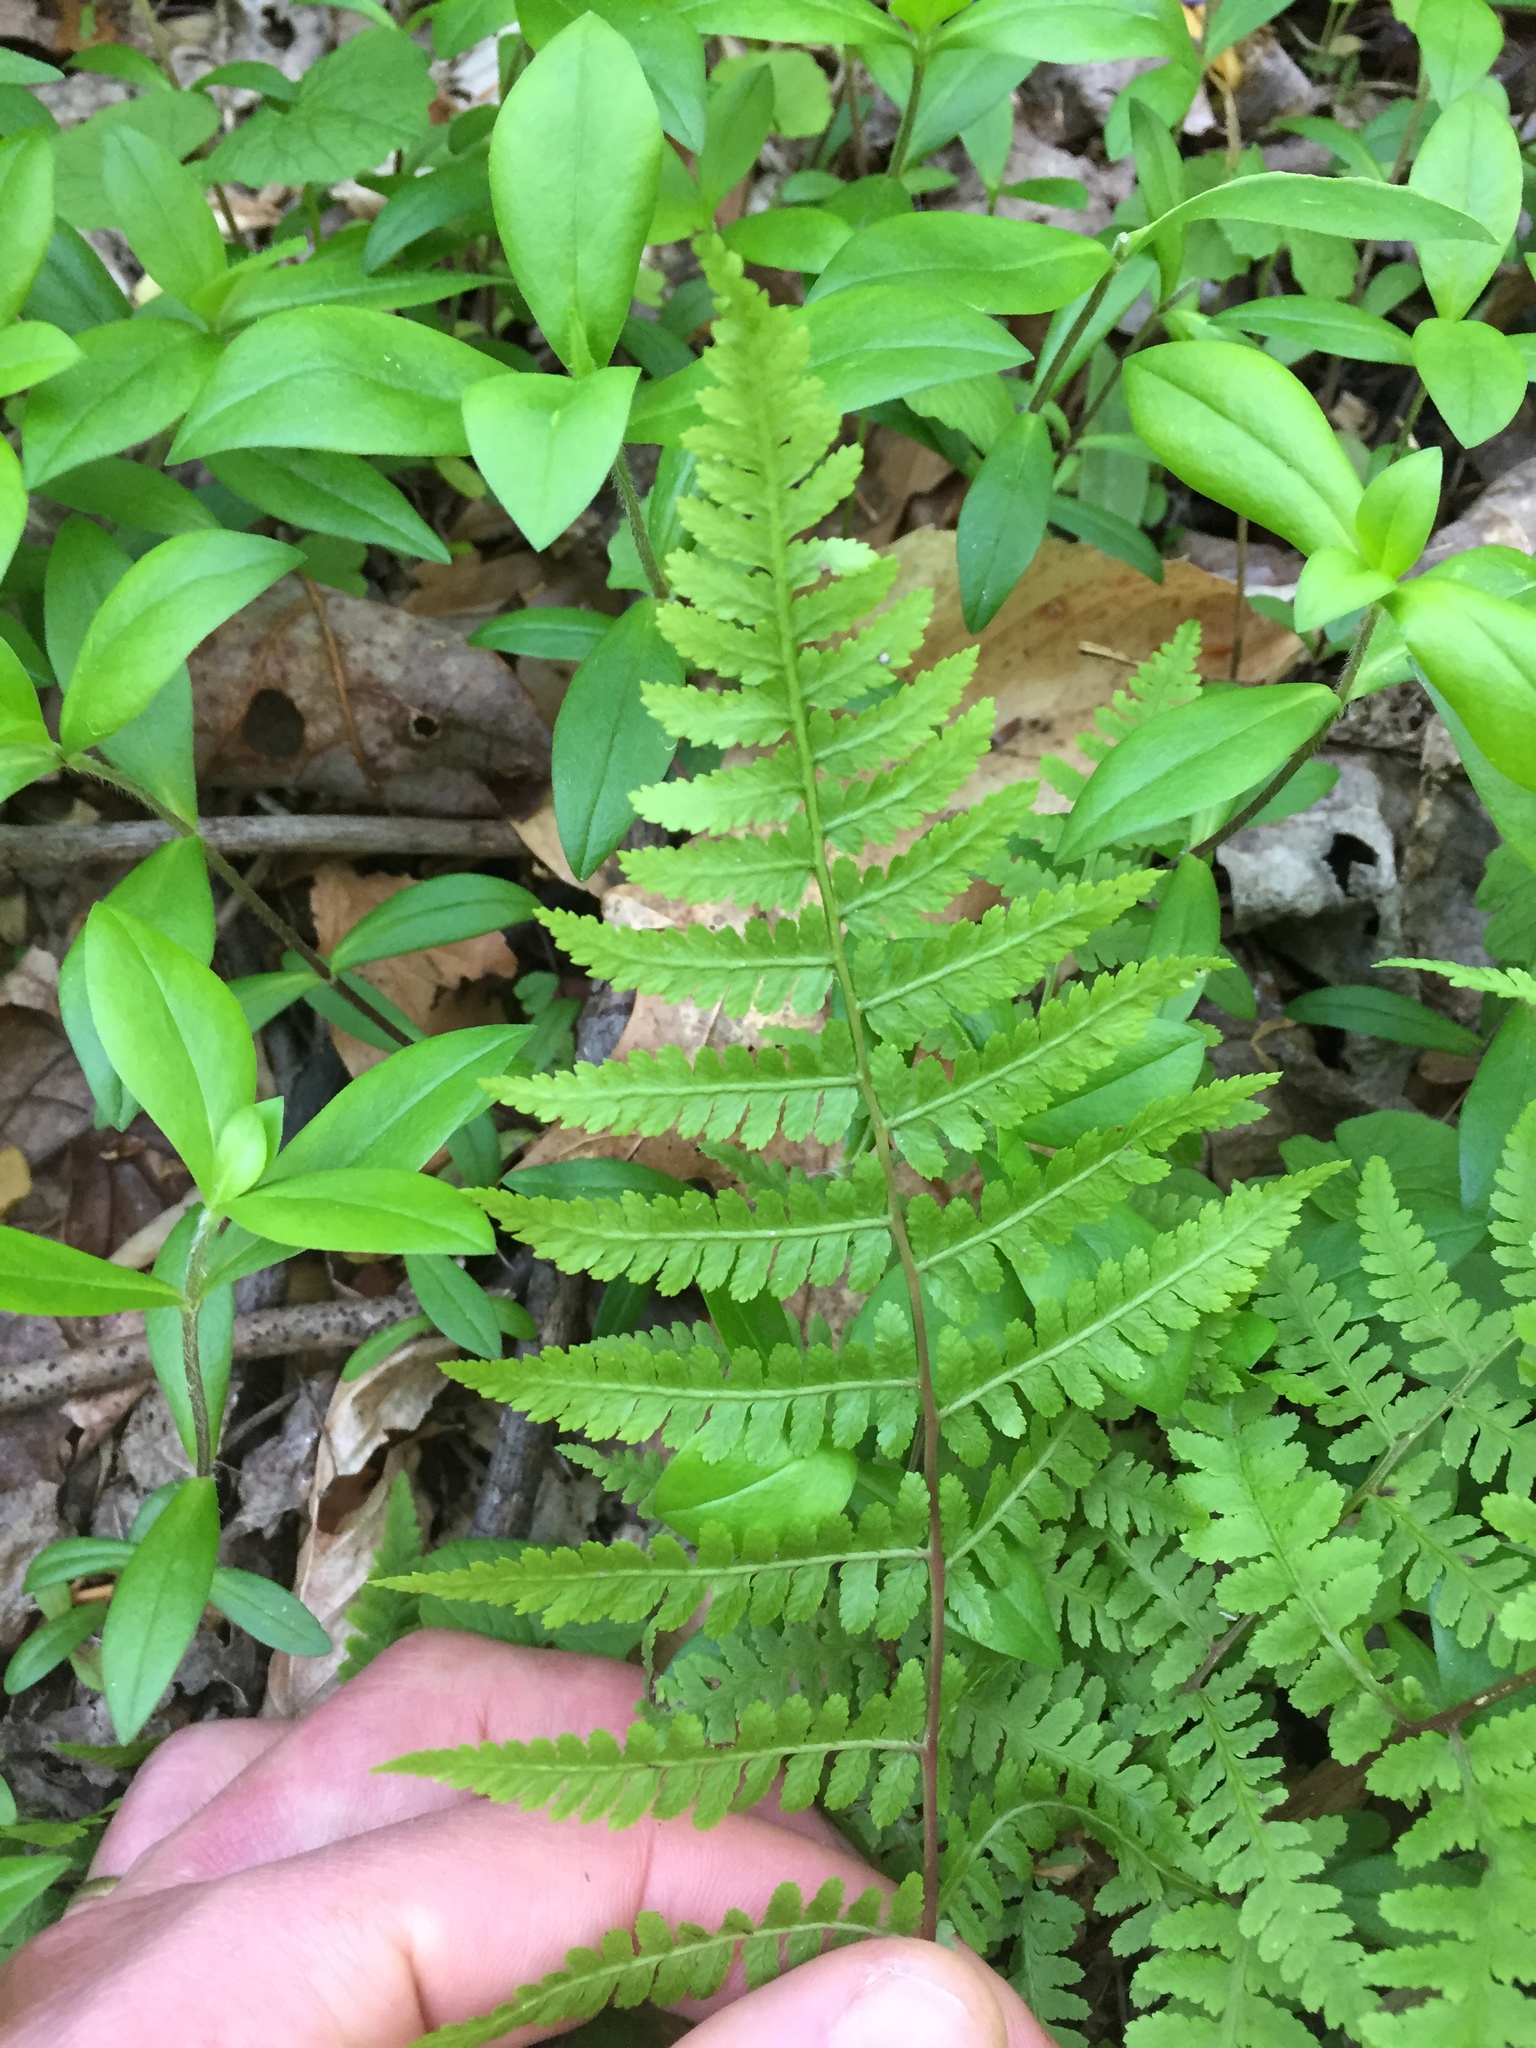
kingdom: Plantae
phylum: Tracheophyta
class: Polypodiopsida
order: Polypodiales
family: Athyriaceae
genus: Athyrium
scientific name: Athyrium asplenioides
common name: Southern lady fern
